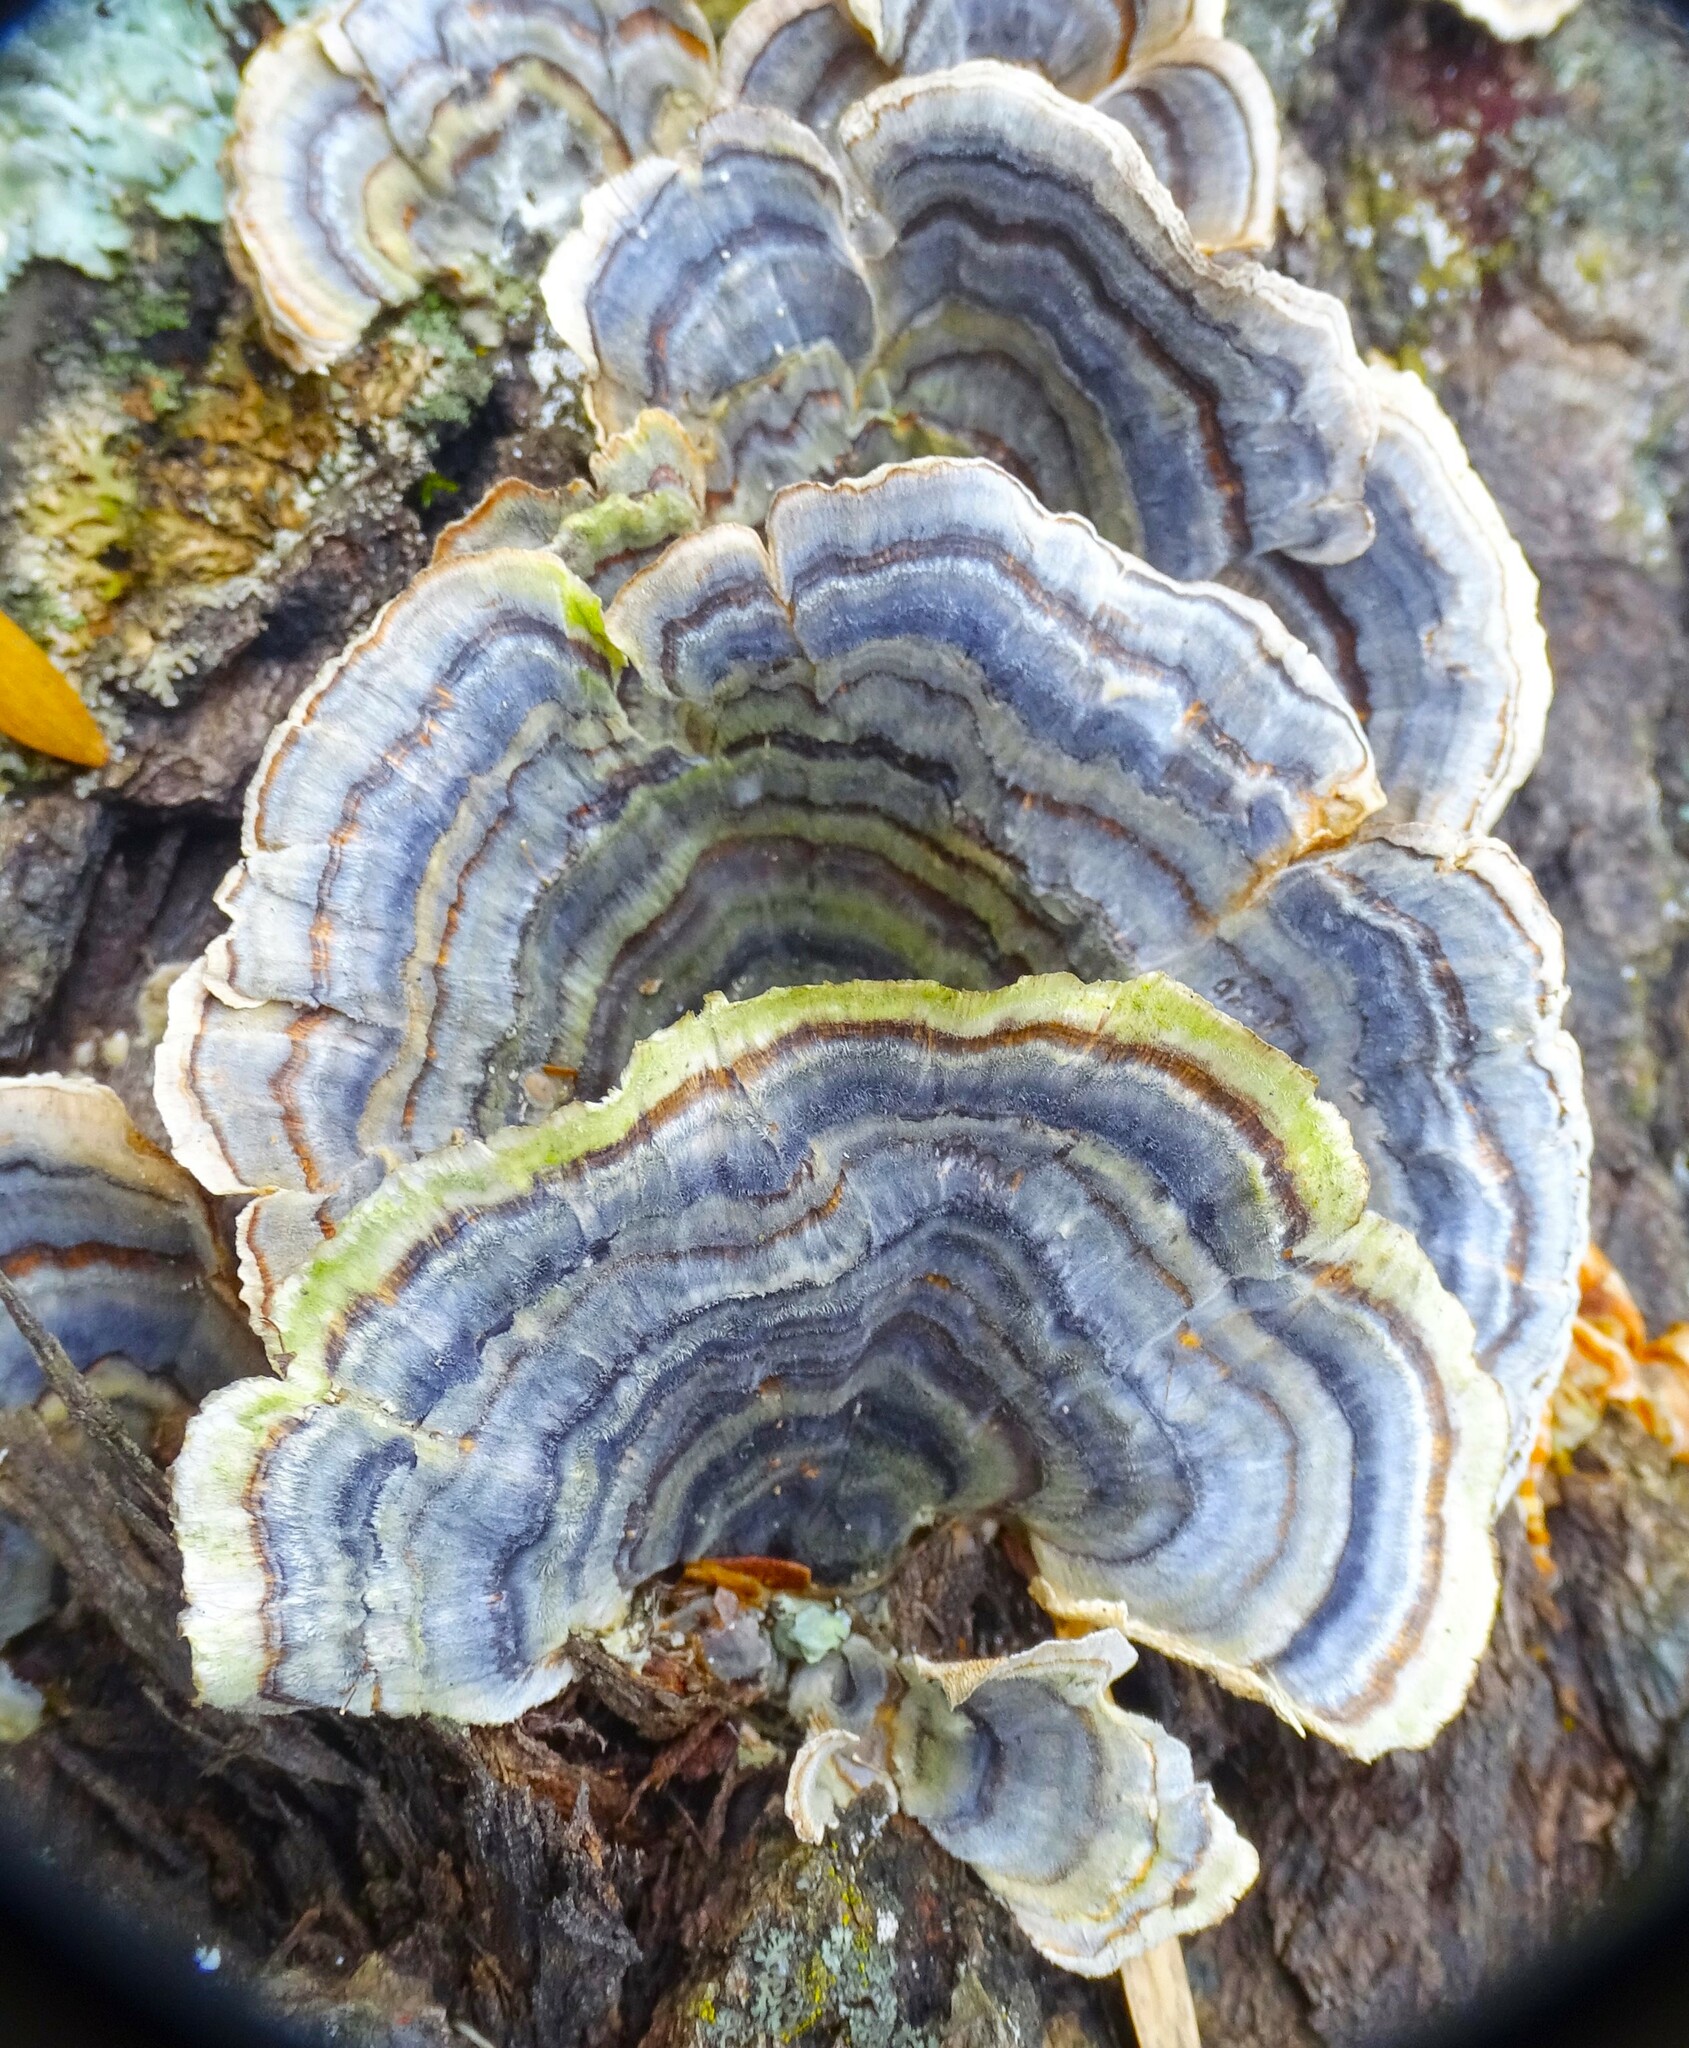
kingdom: Fungi
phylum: Basidiomycota
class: Agaricomycetes
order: Polyporales
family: Polyporaceae
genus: Trametes
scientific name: Trametes versicolor
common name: Turkeytail
